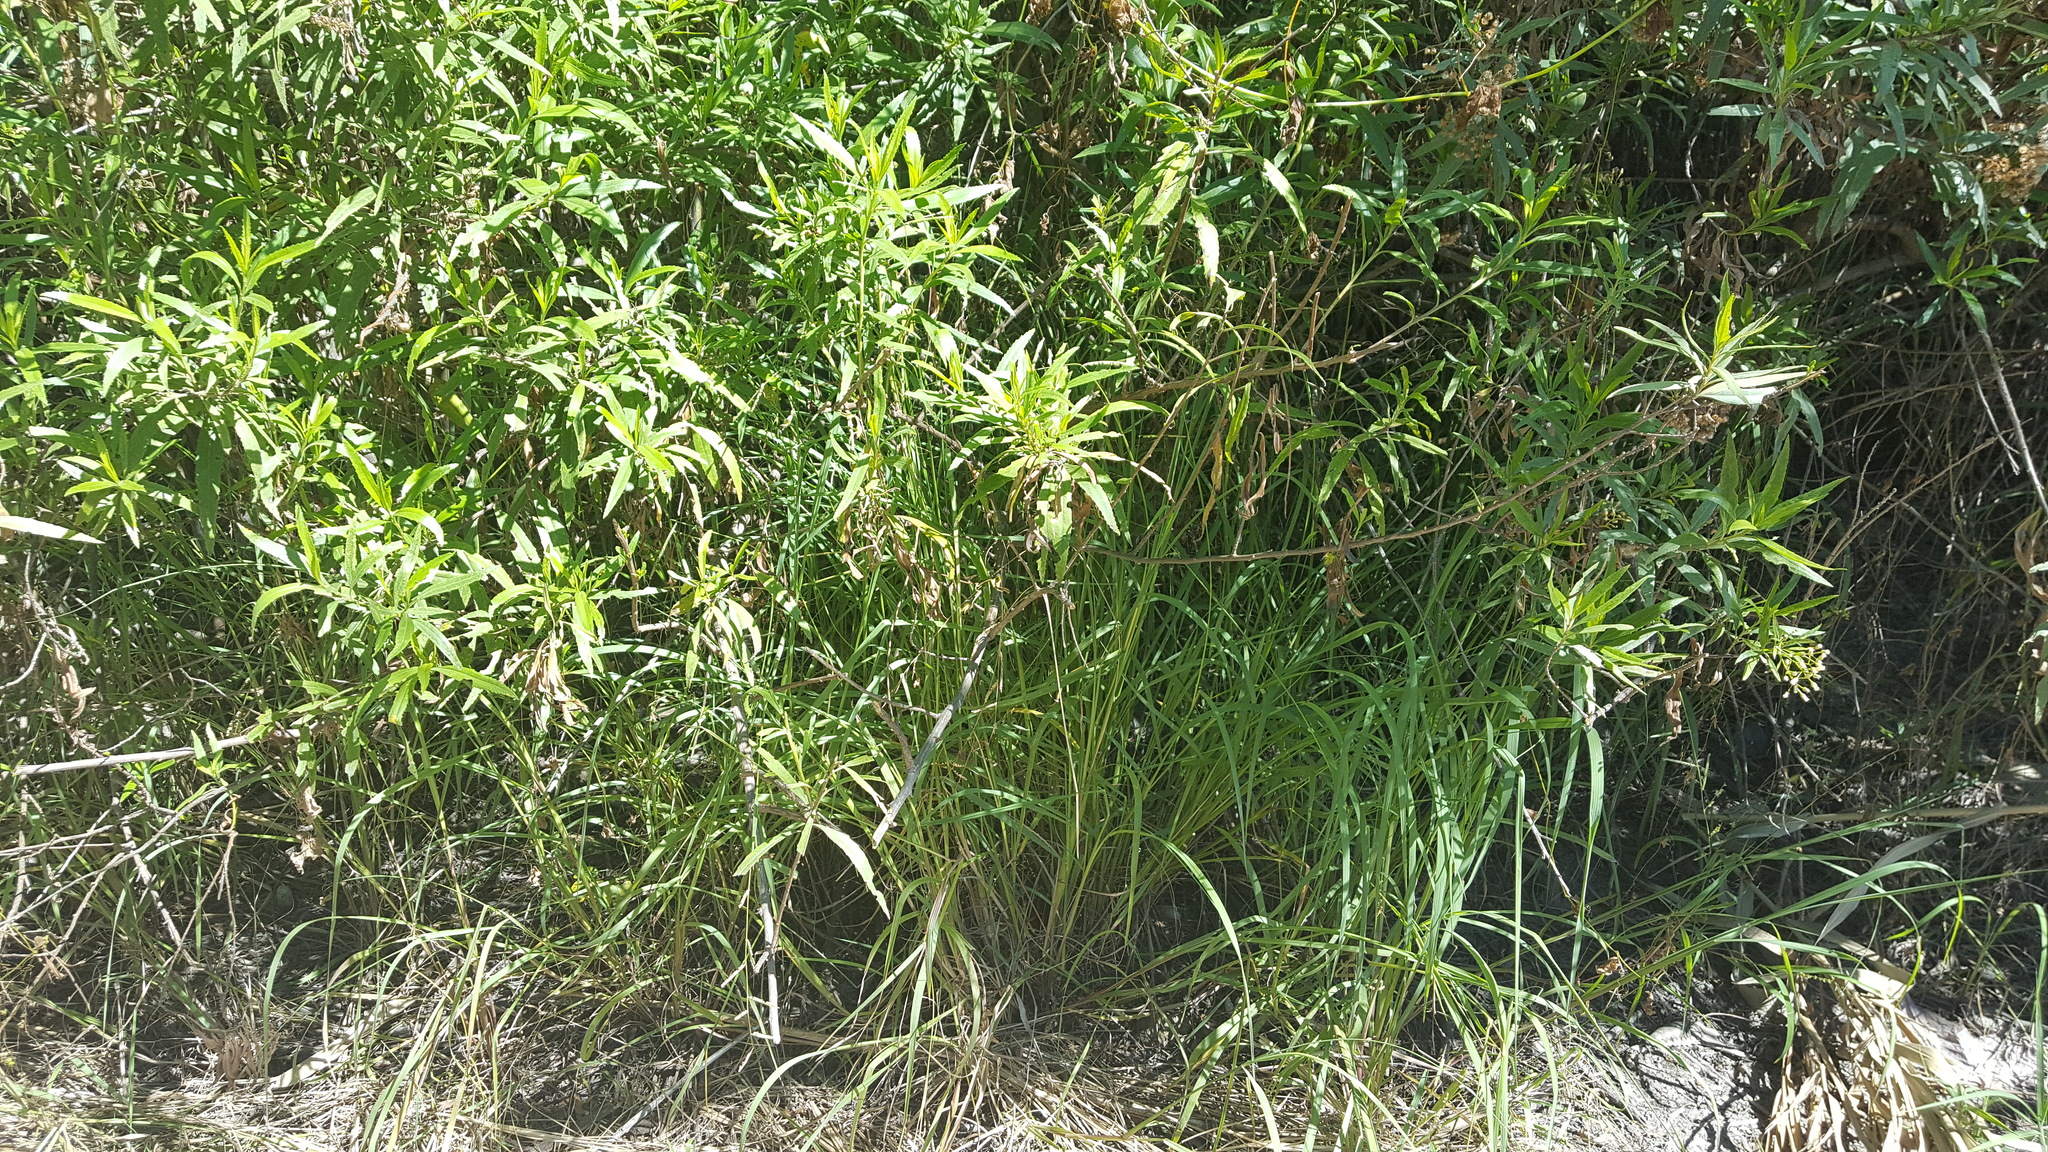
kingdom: Plantae
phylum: Tracheophyta
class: Magnoliopsida
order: Asterales
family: Asteraceae
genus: Baccharis
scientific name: Baccharis salicifolia
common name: Sticky baccharis
